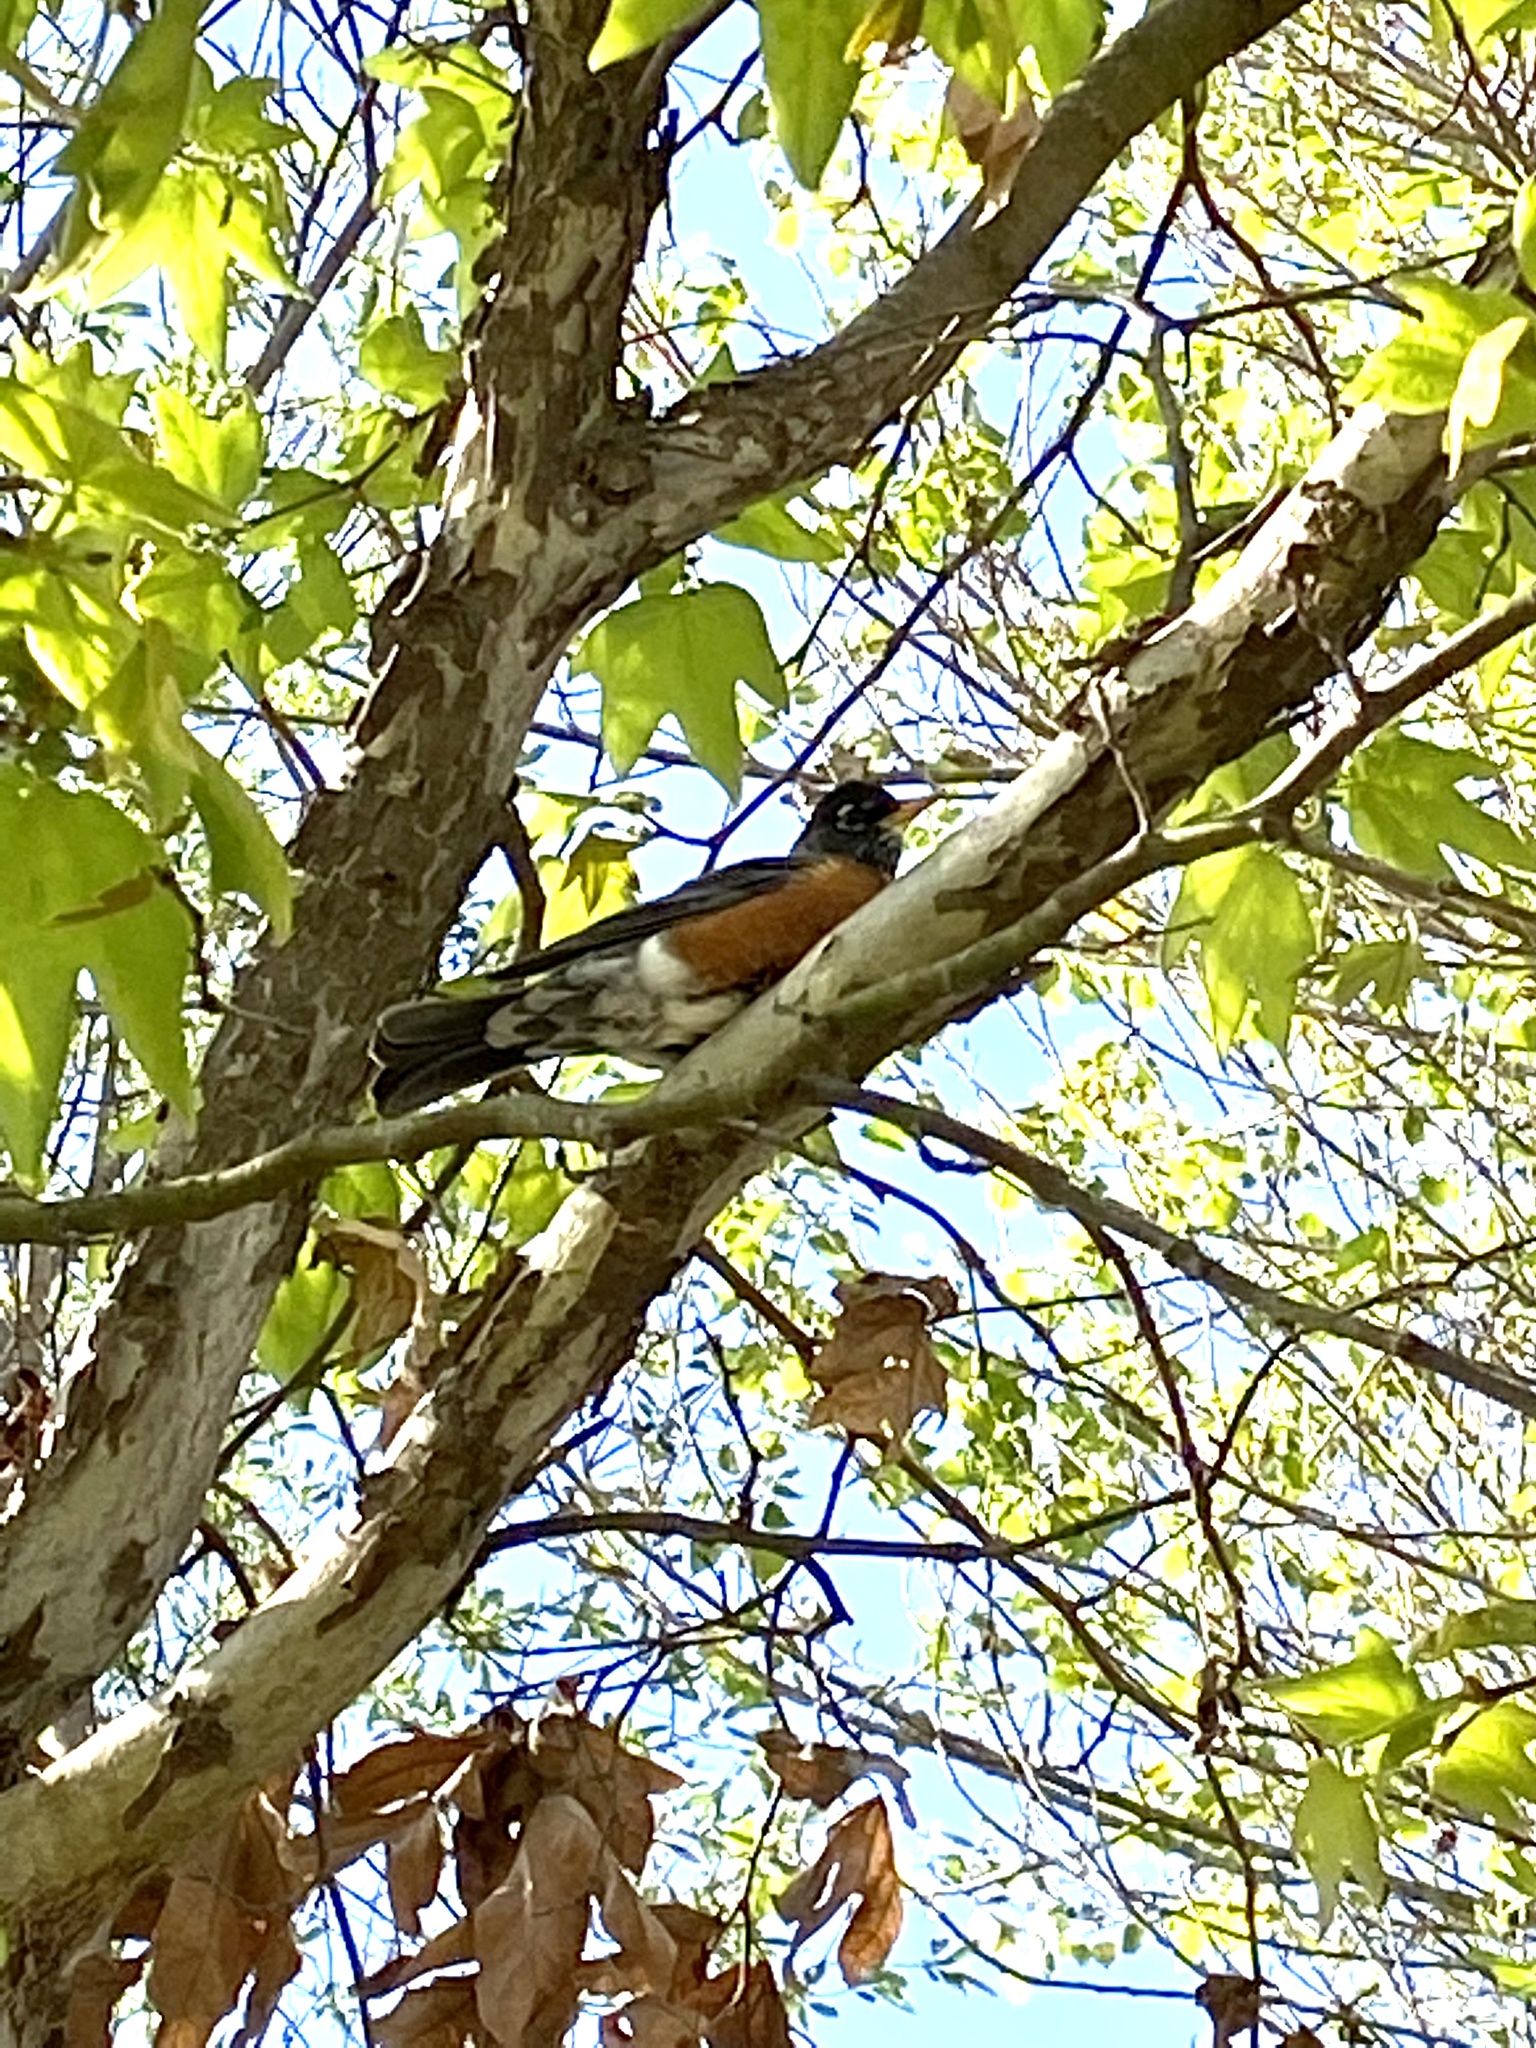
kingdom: Animalia
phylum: Chordata
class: Aves
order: Passeriformes
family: Turdidae
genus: Turdus
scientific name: Turdus migratorius
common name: American robin
